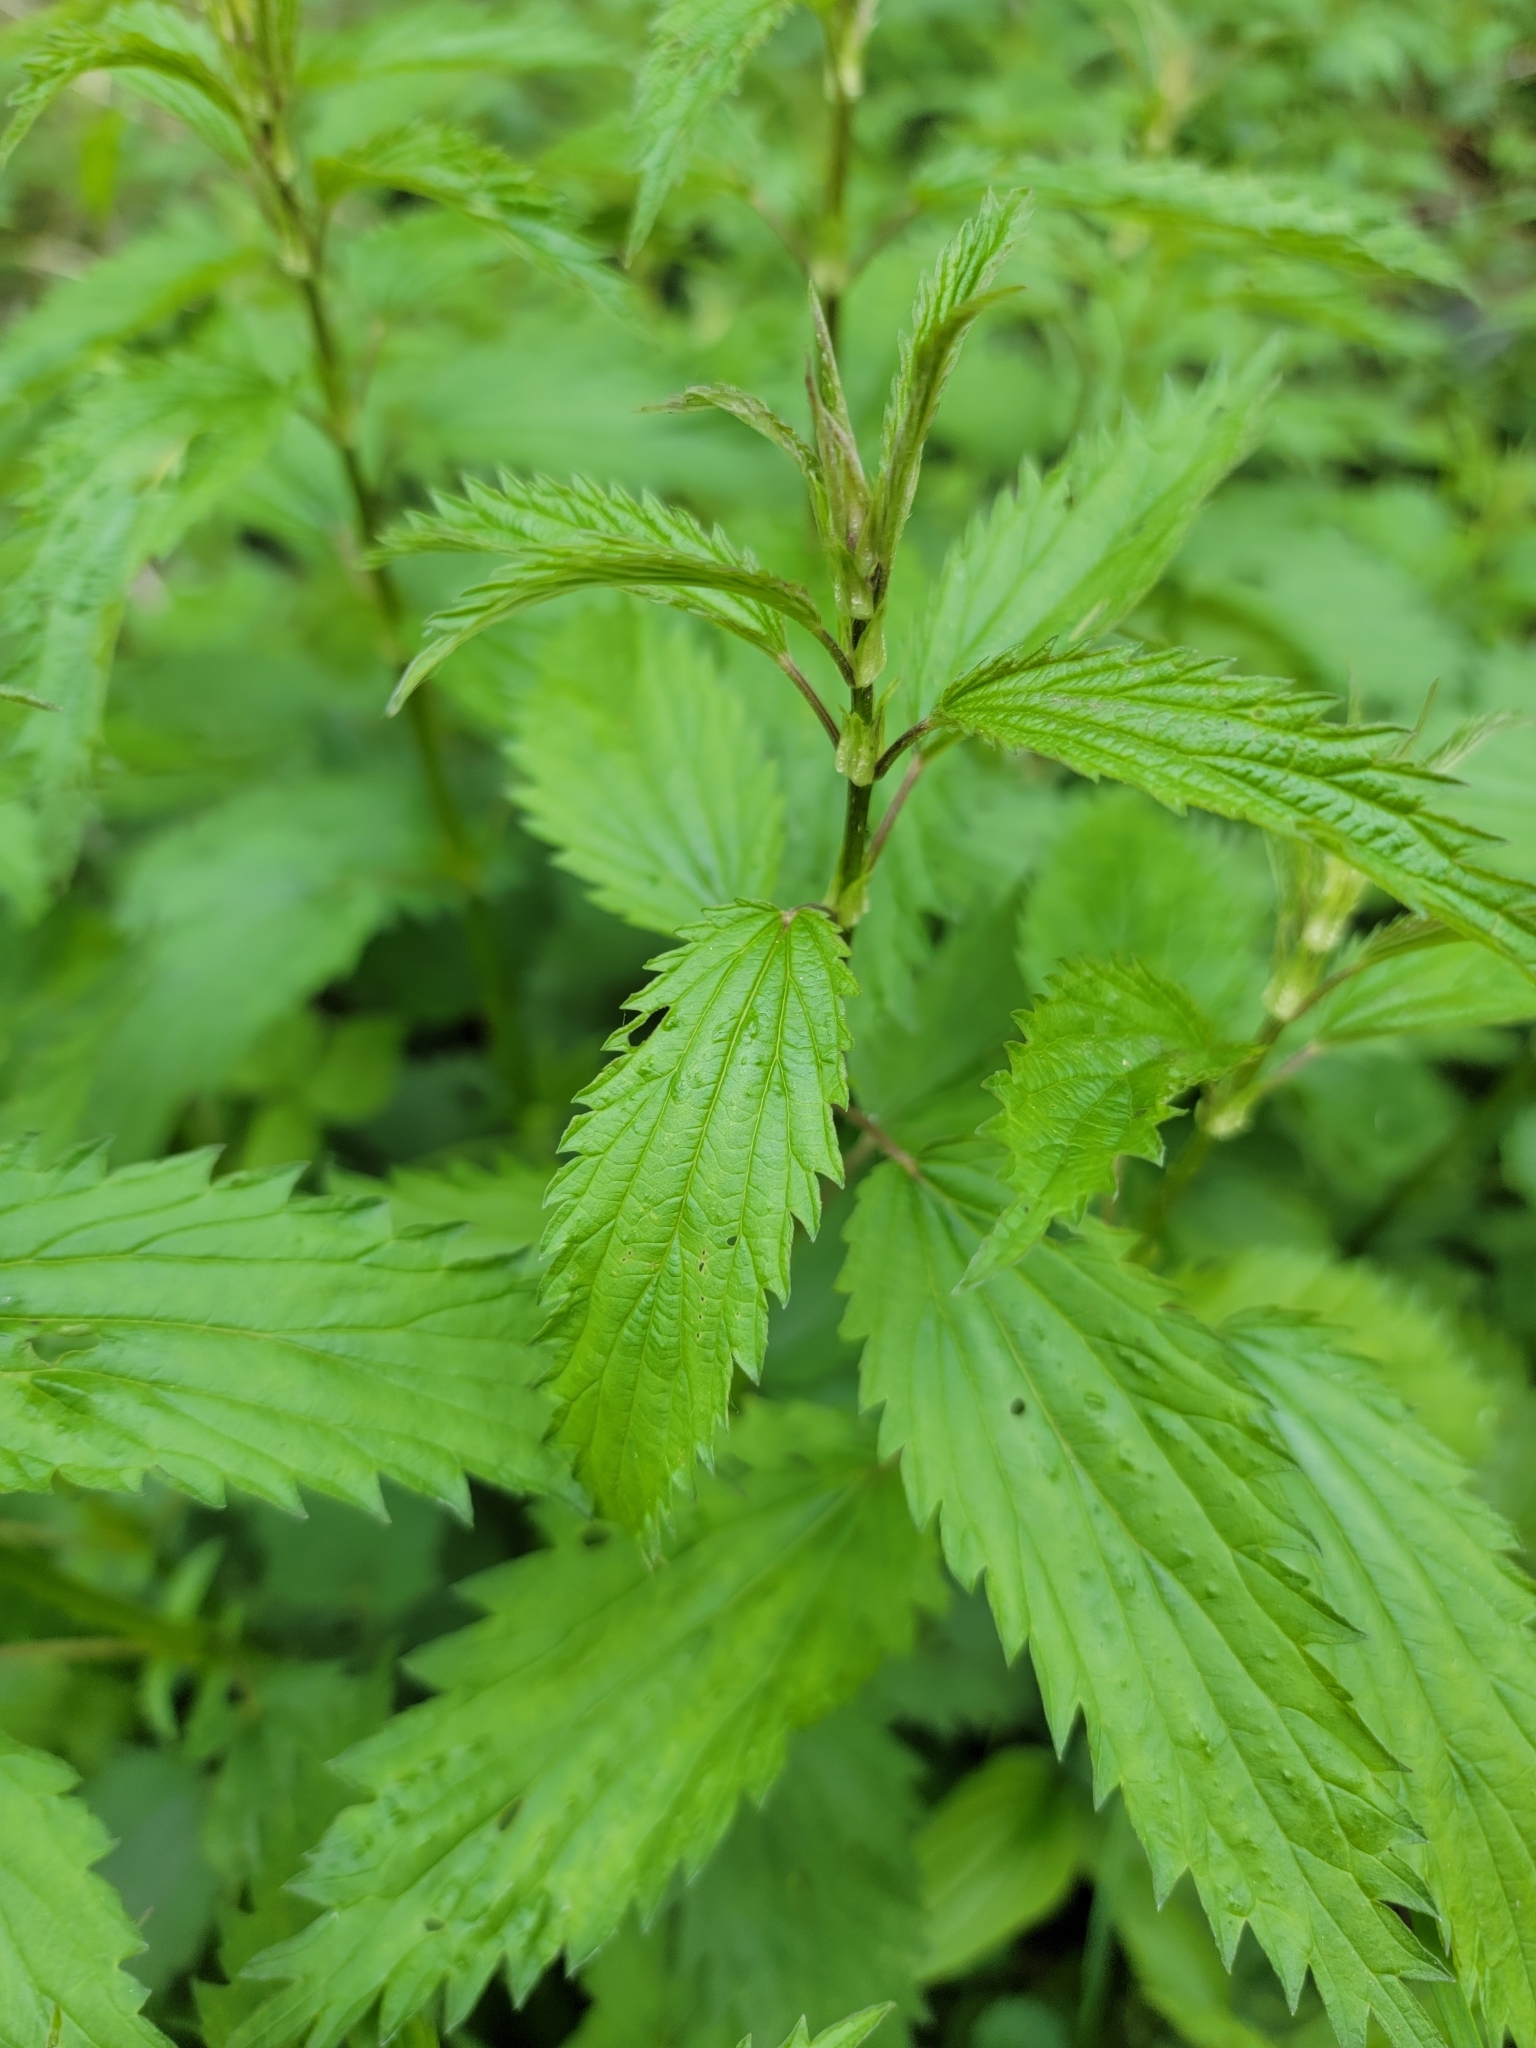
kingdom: Plantae
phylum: Tracheophyta
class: Magnoliopsida
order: Rosales
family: Urticaceae
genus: Urtica
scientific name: Urtica gracilis
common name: Slender stinging nettle
